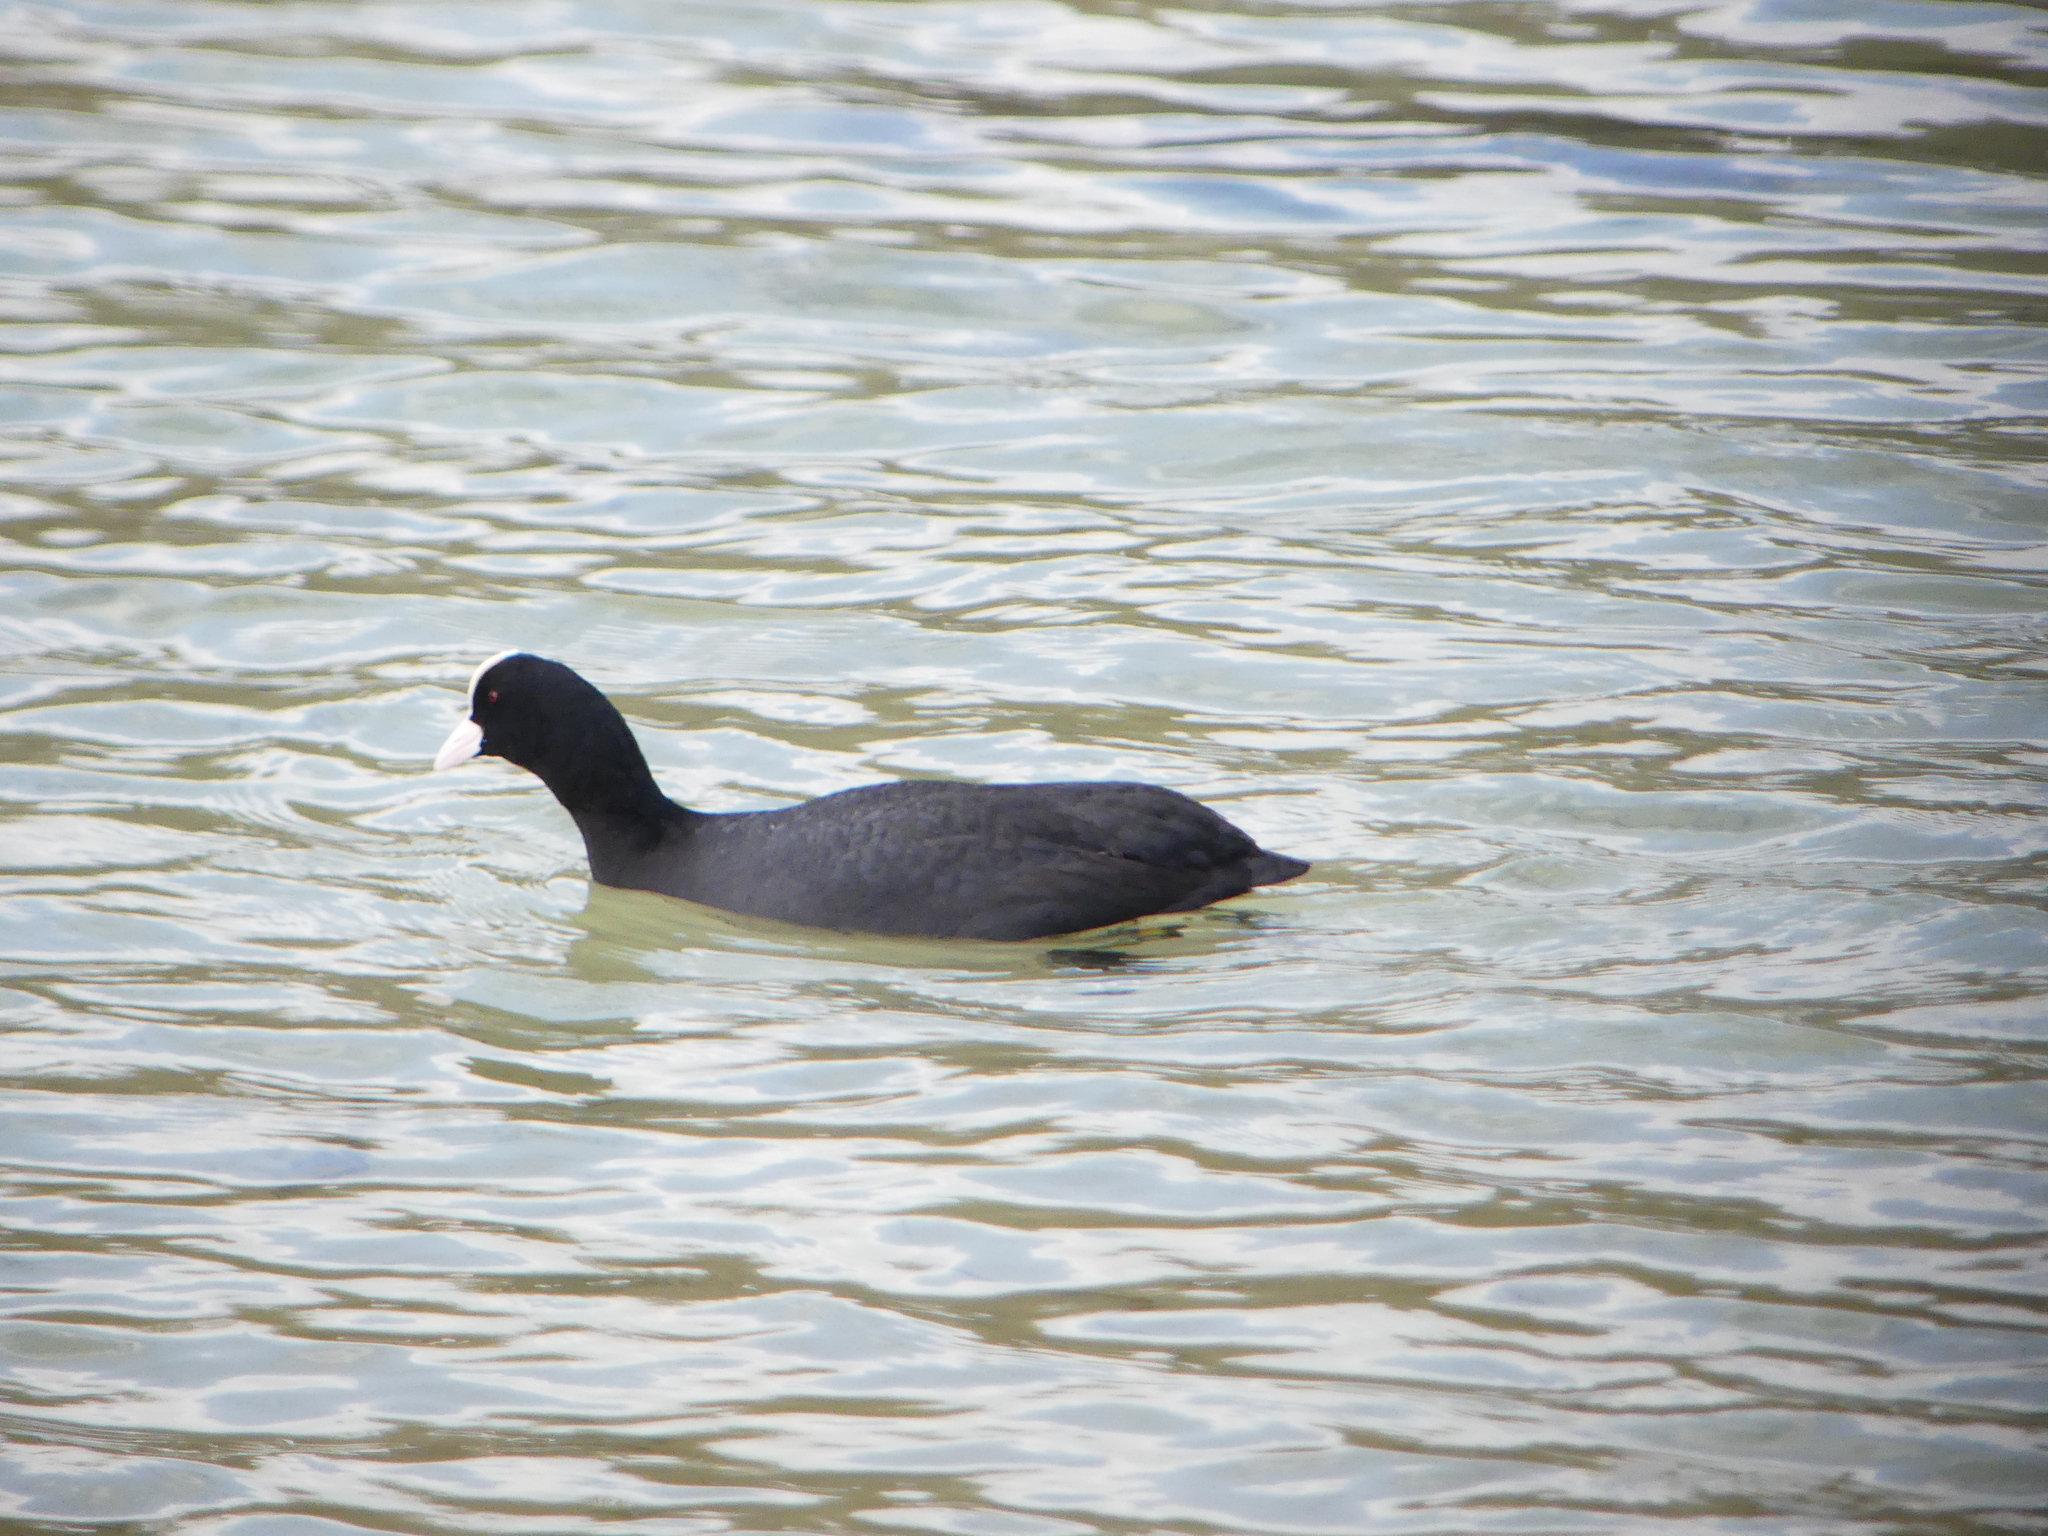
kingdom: Animalia
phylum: Chordata
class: Aves
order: Gruiformes
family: Rallidae
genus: Fulica
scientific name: Fulica atra
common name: Eurasian coot
